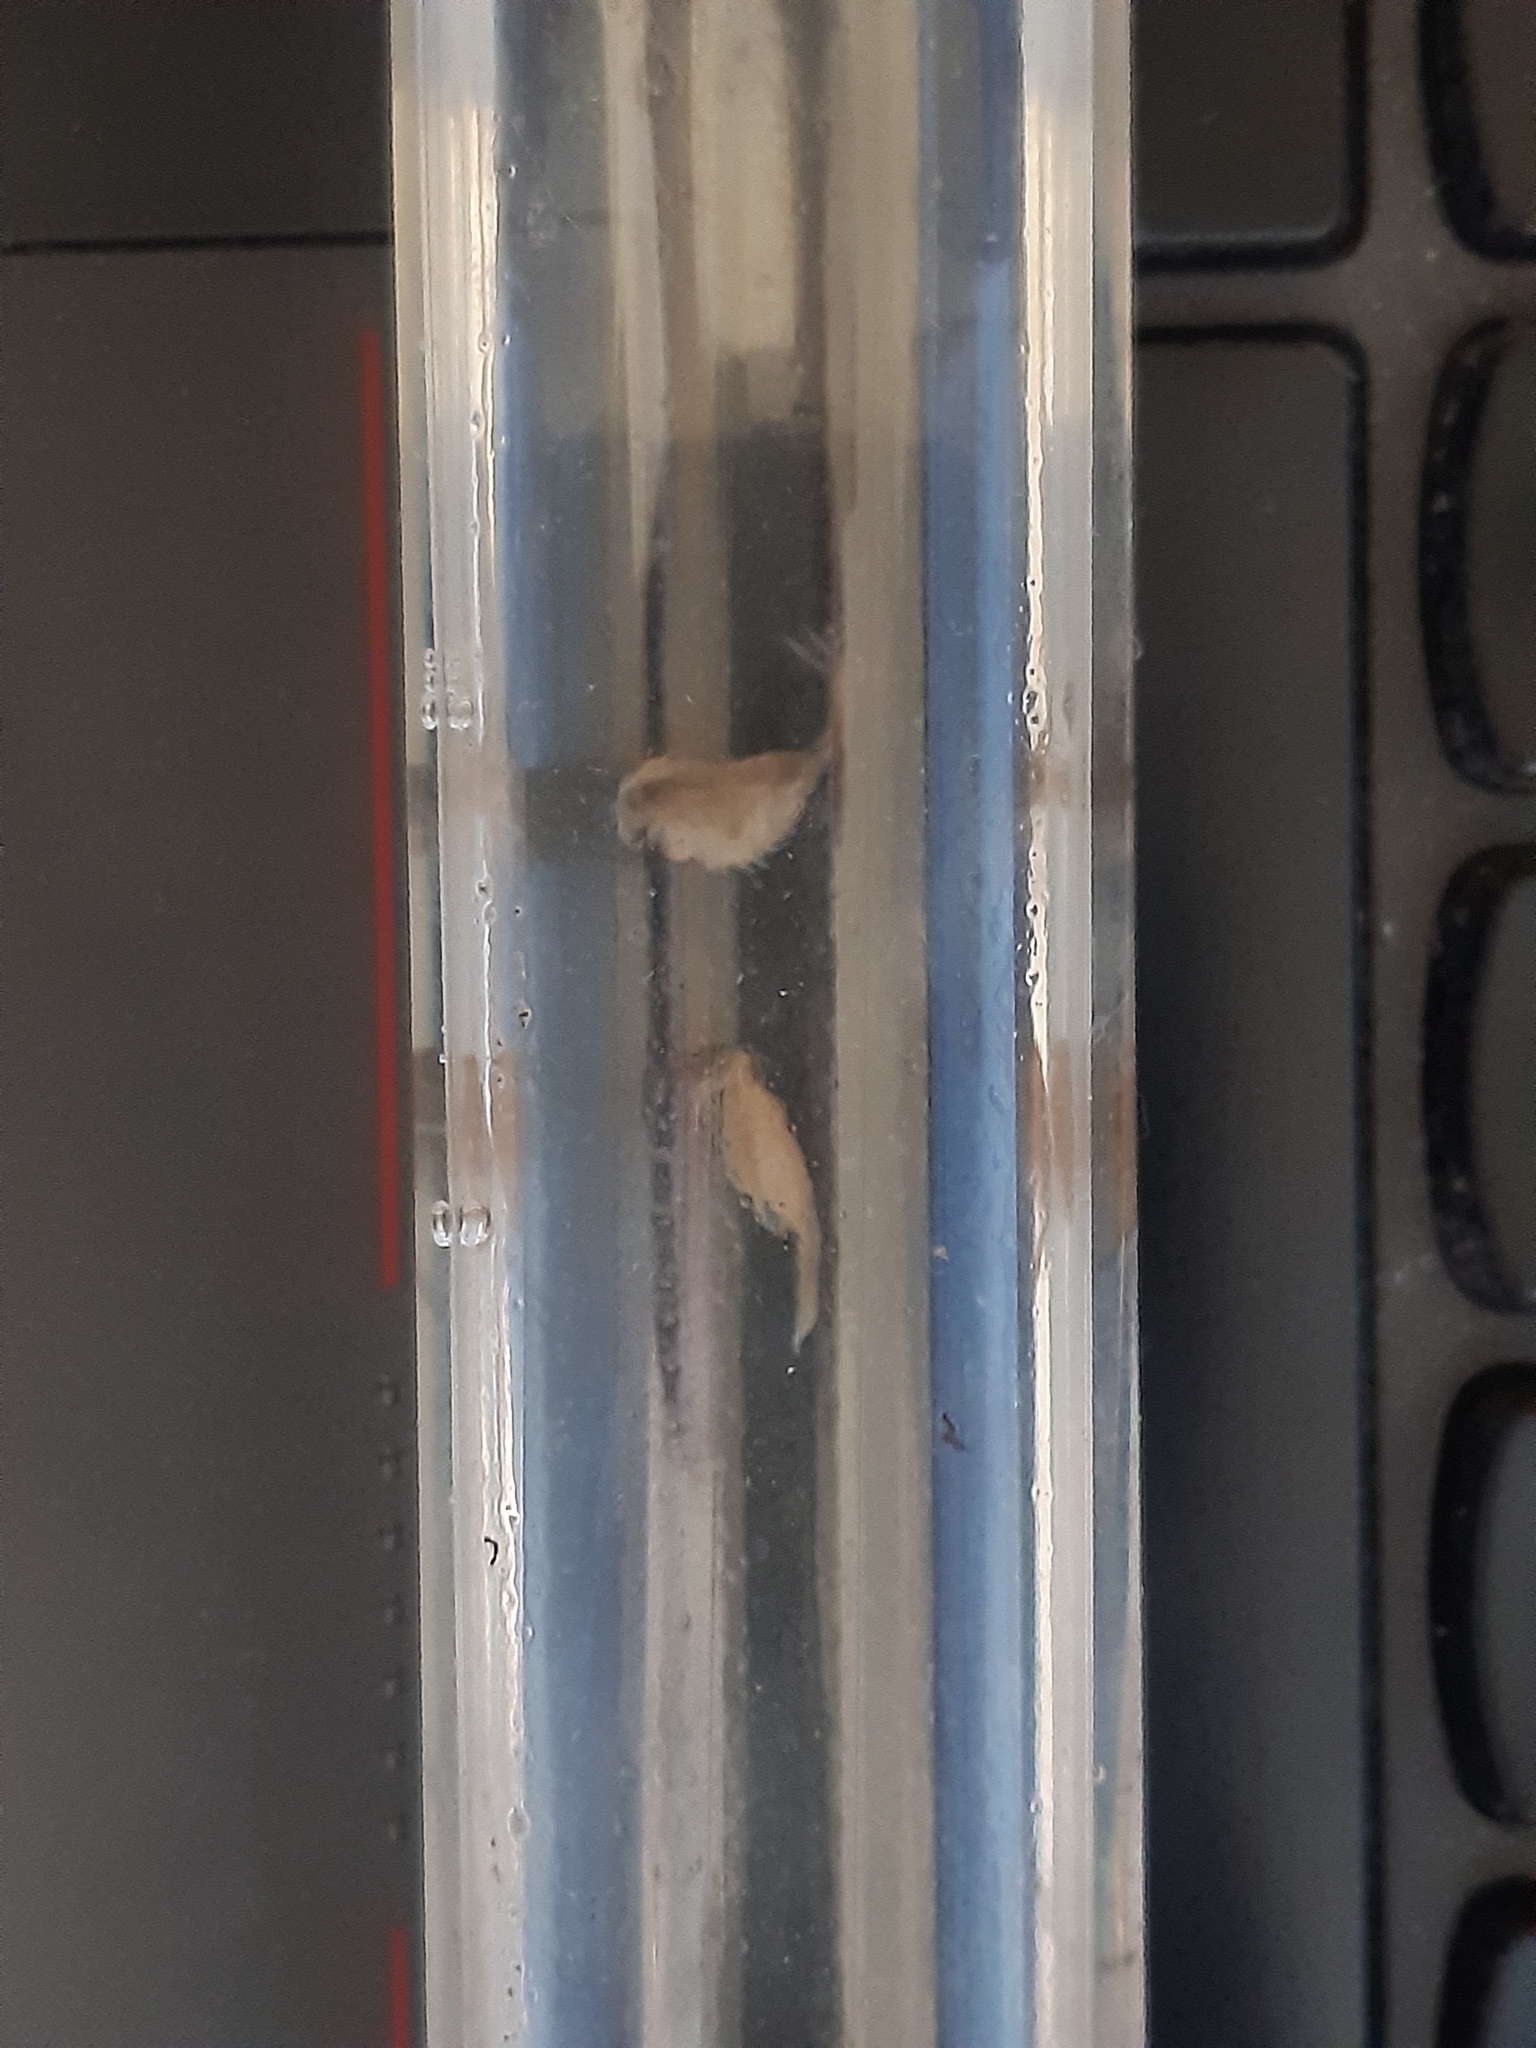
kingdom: Animalia
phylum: Arthropoda
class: Branchiopoda
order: Anostraca
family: Branchipodidae
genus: Branchipus
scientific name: Branchipus schaefferi
